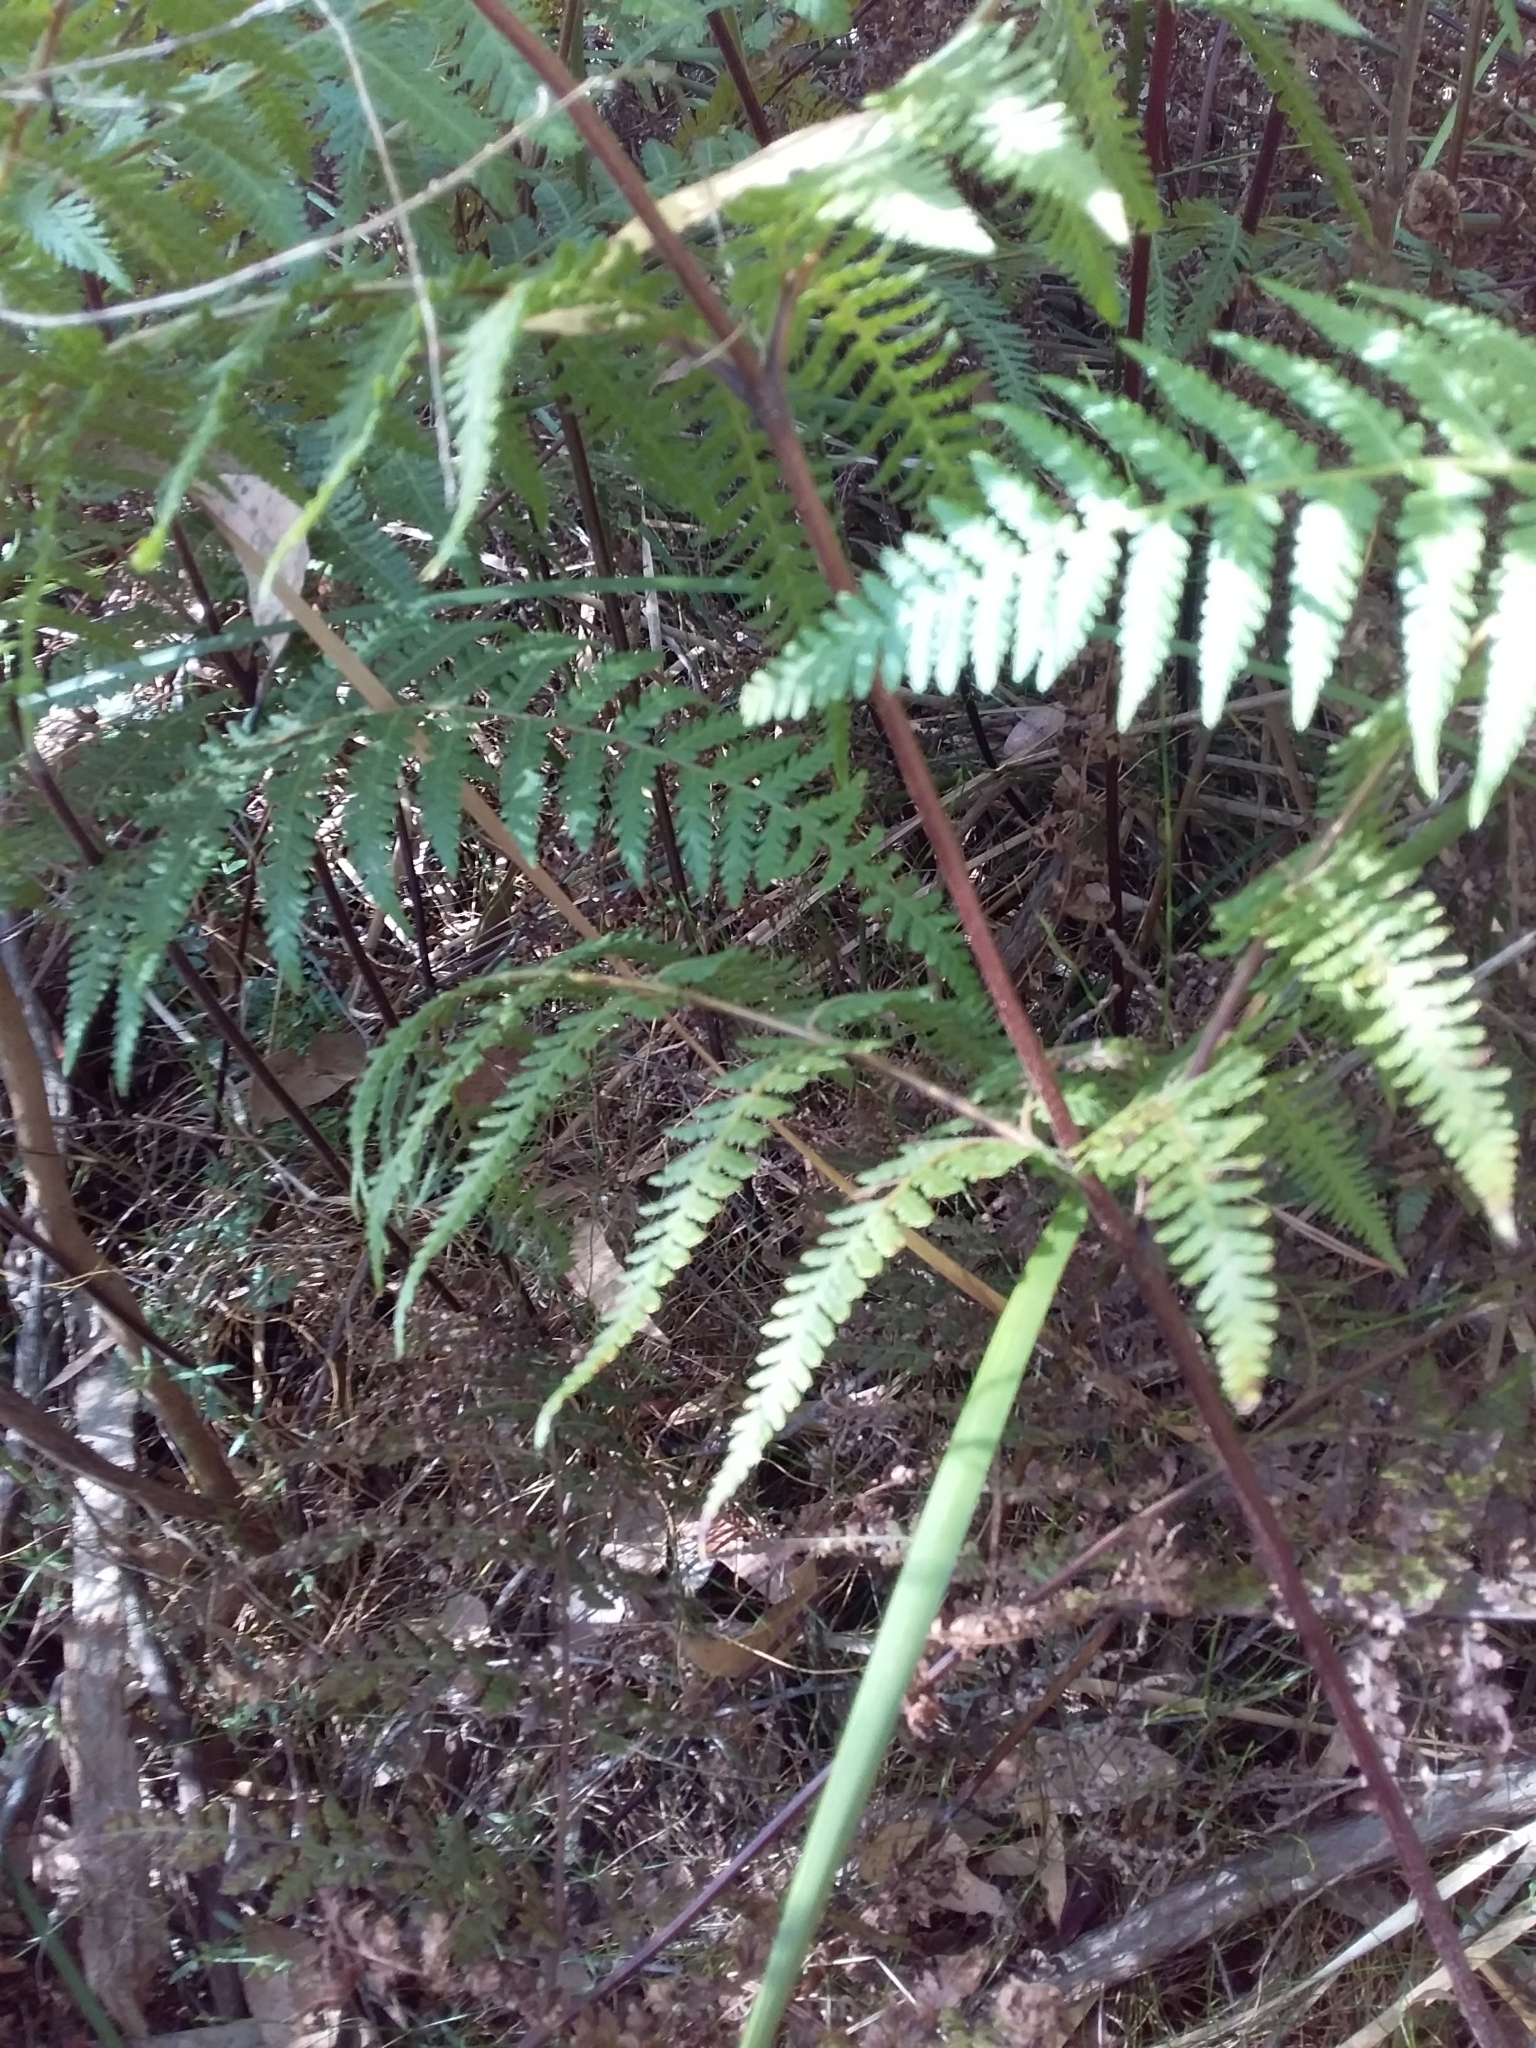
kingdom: Plantae
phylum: Tracheophyta
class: Polypodiopsida
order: Polypodiales
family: Dennstaedtiaceae
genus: Hypolepis
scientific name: Hypolepis rugosula
